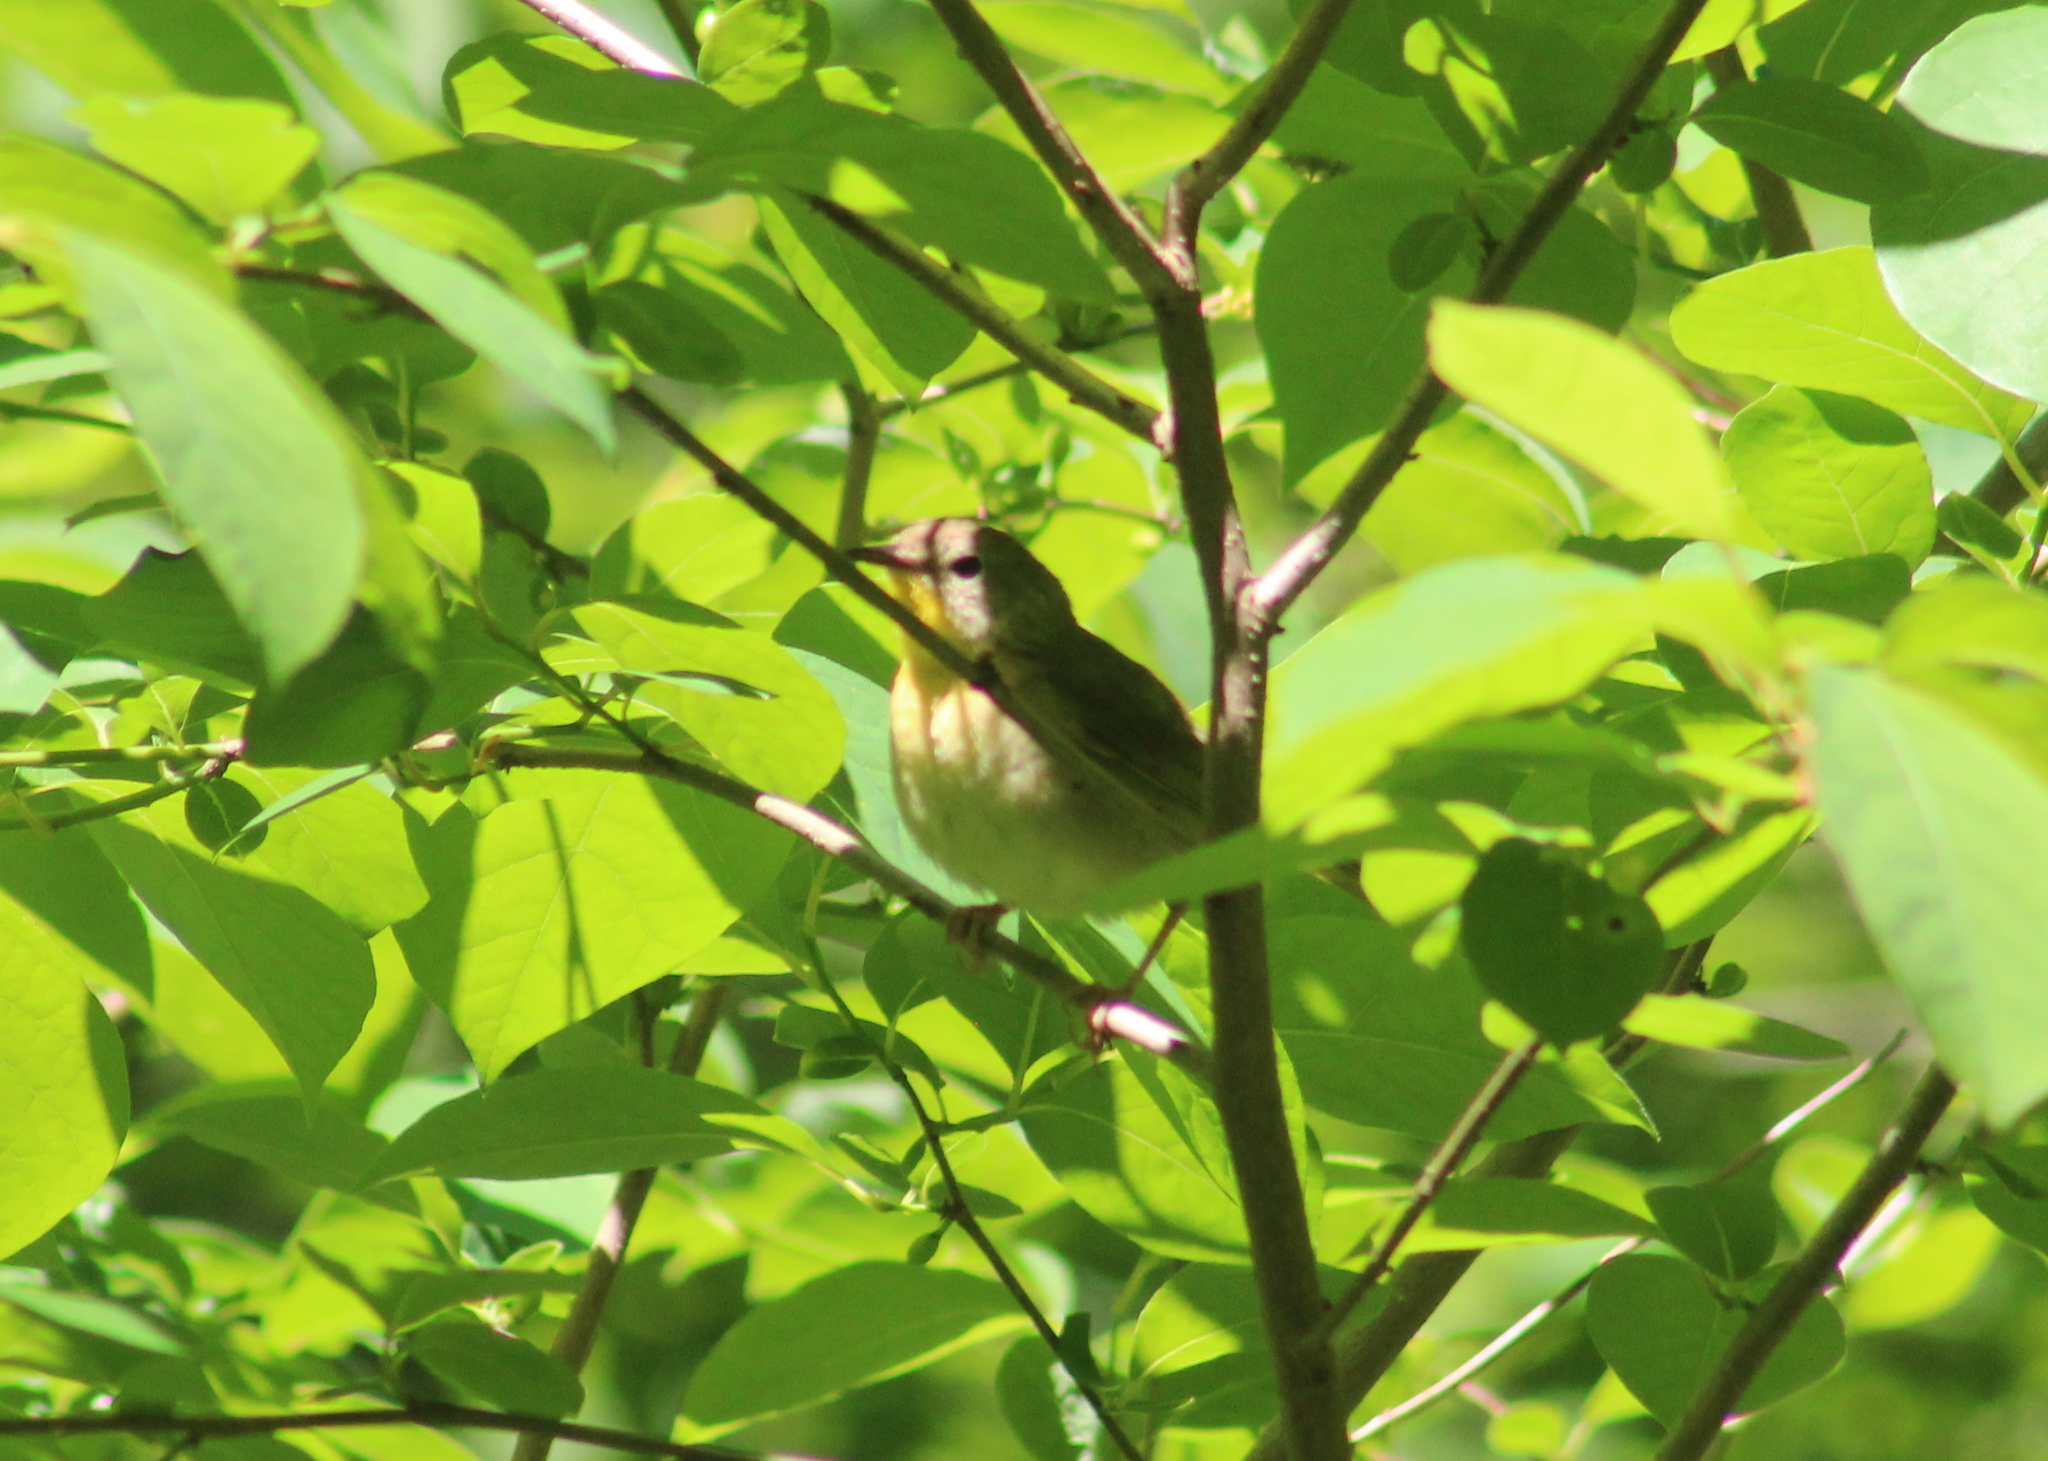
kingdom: Animalia
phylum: Chordata
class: Aves
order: Passeriformes
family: Parulidae
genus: Geothlypis
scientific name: Geothlypis trichas
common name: Common yellowthroat
